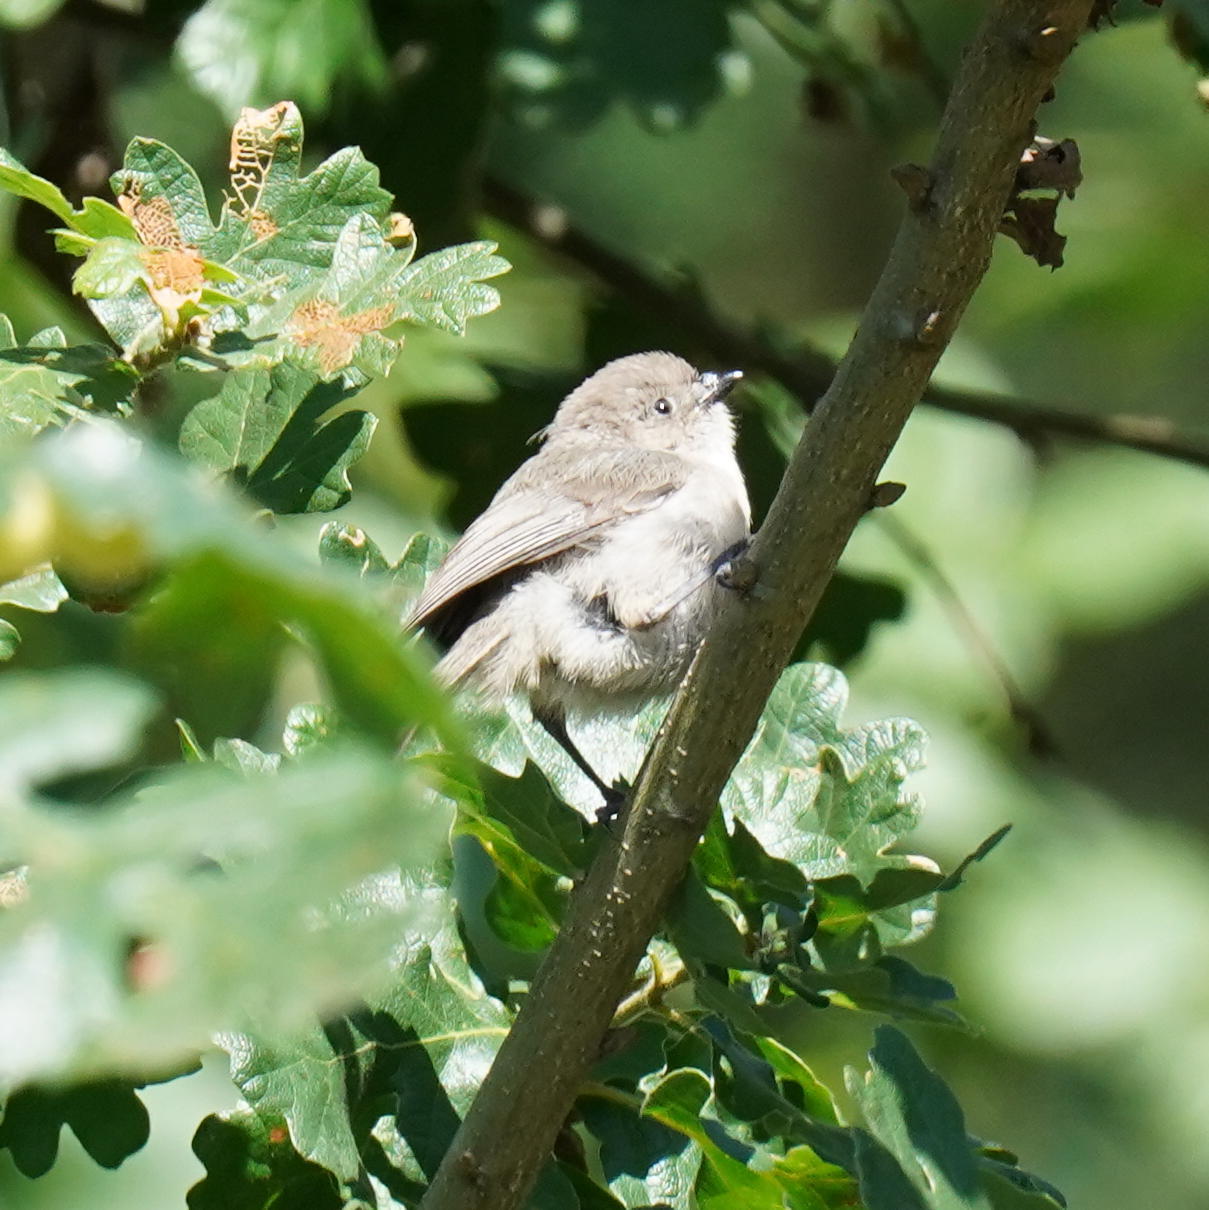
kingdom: Animalia
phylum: Chordata
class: Aves
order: Passeriformes
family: Aegithalidae
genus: Psaltriparus
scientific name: Psaltriparus minimus
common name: American bushtit
